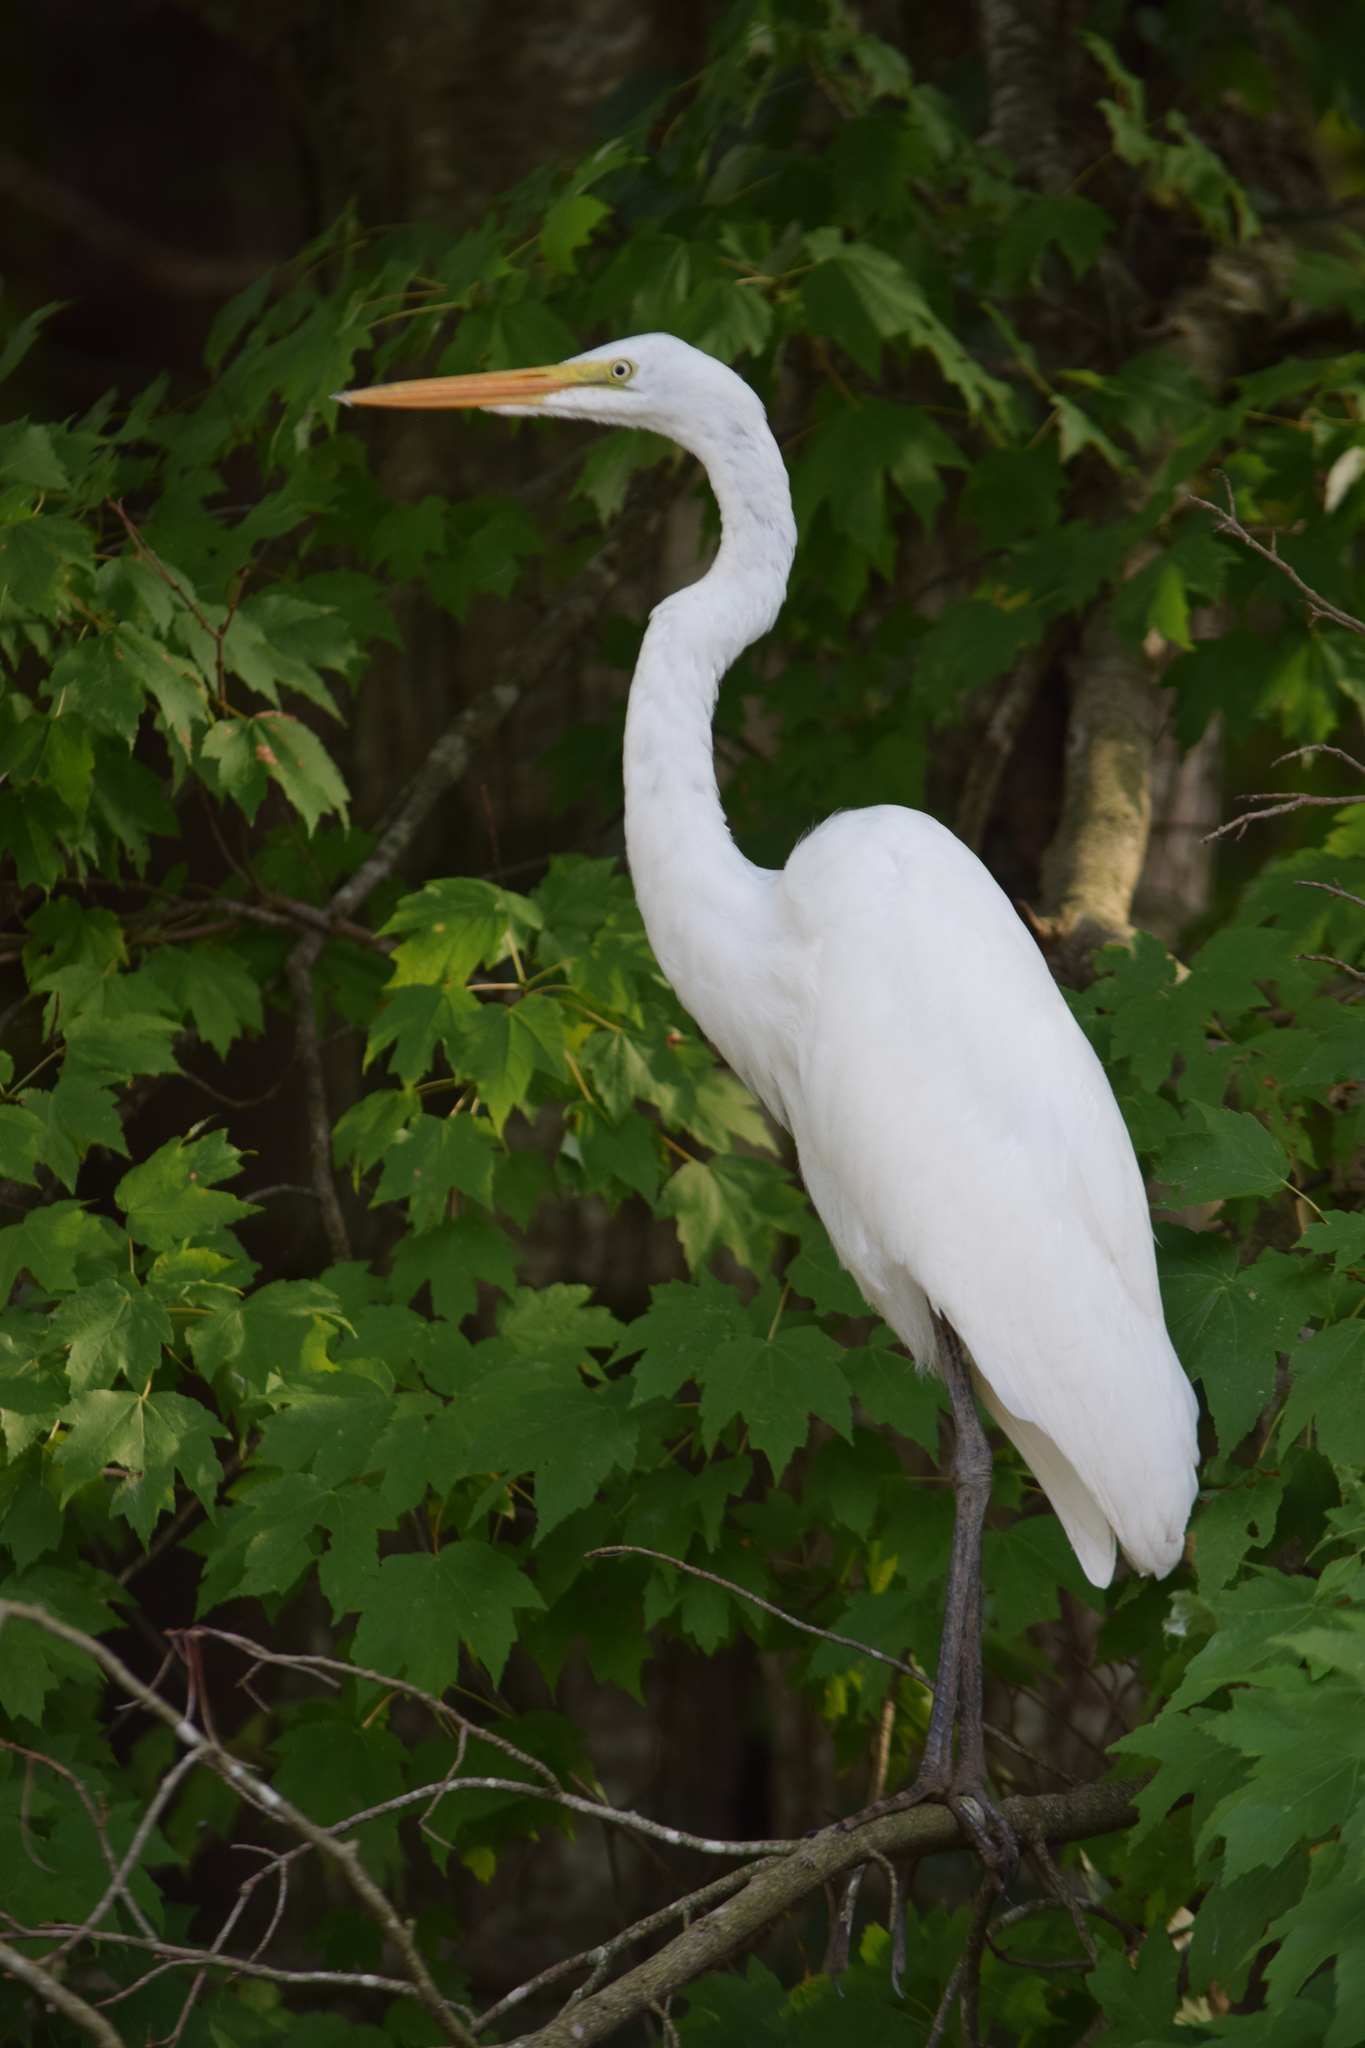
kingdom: Animalia
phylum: Chordata
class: Aves
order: Pelecaniformes
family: Ardeidae
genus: Ardea
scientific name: Ardea alba
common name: Great egret
